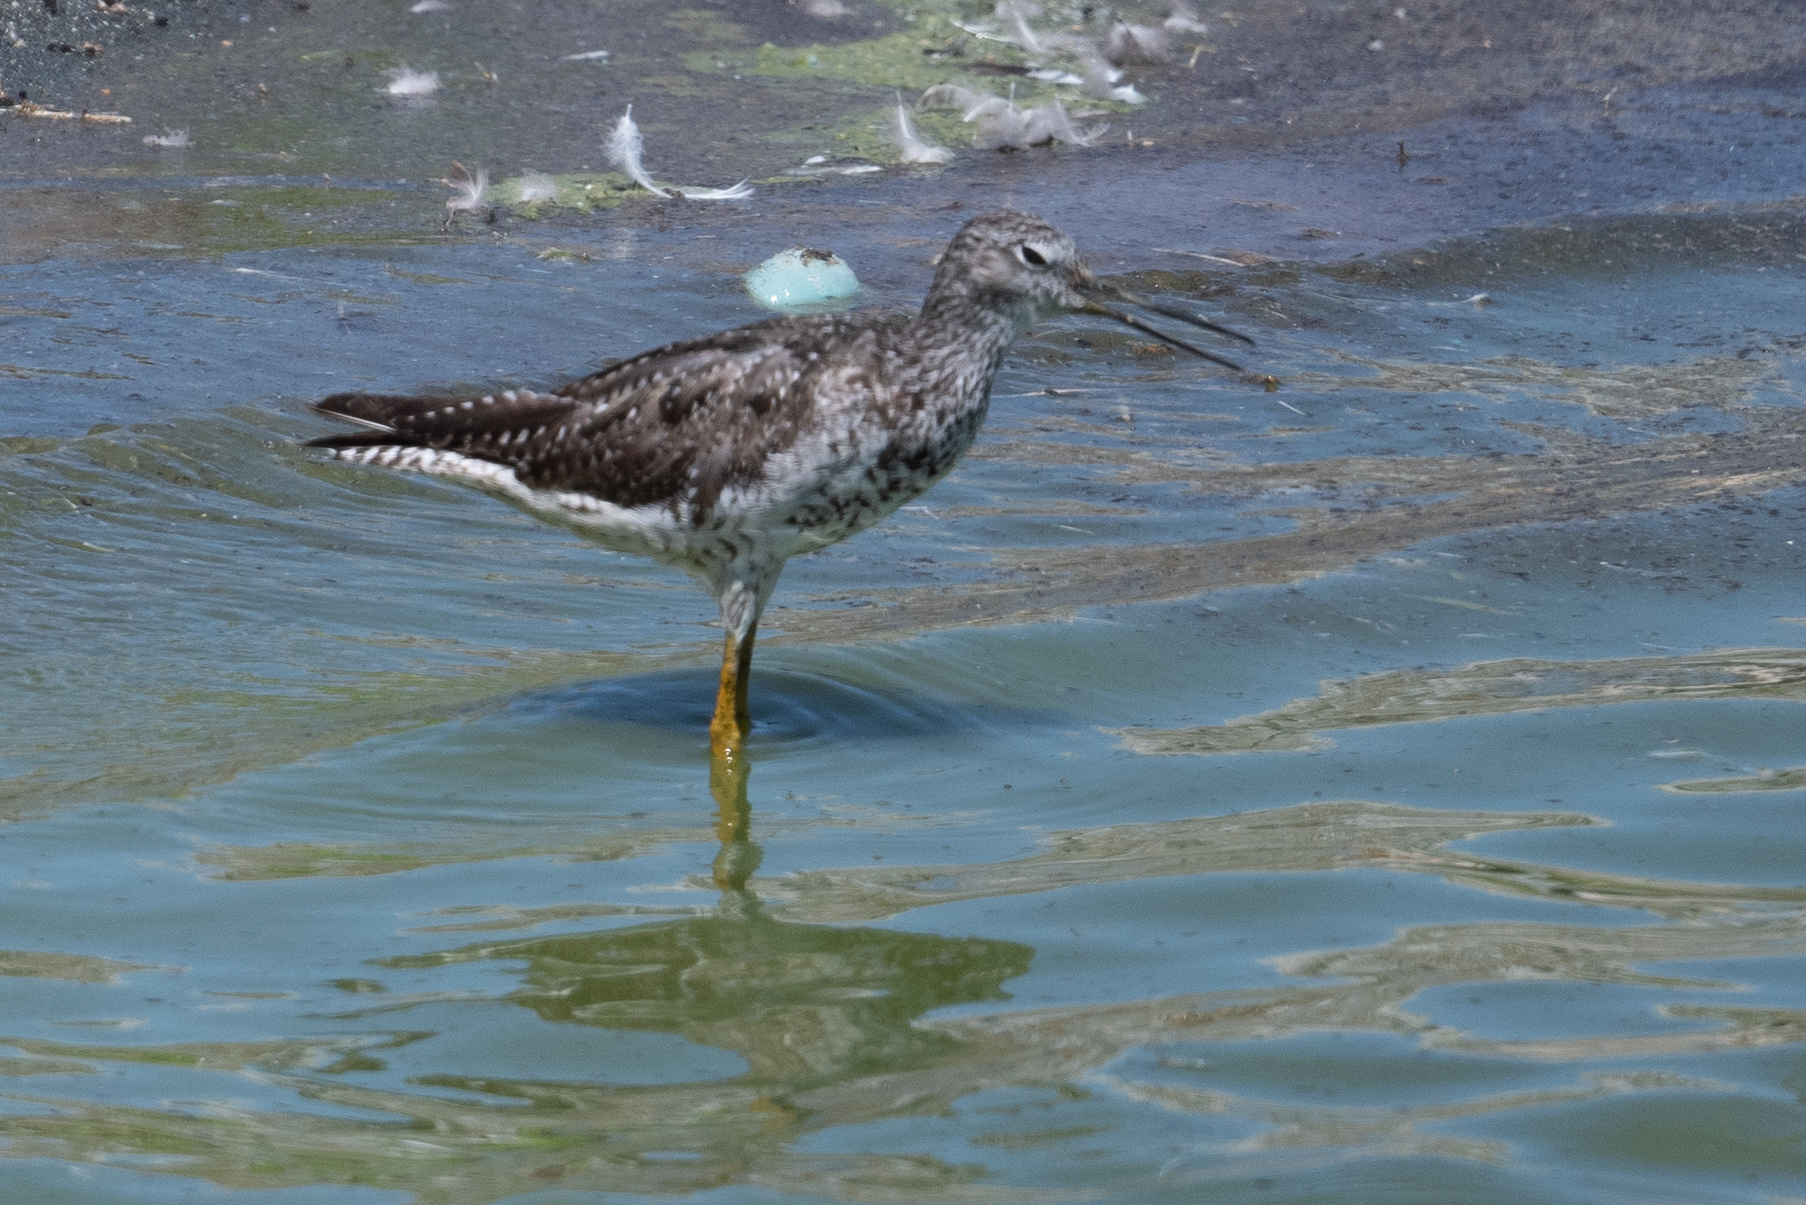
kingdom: Animalia
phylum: Chordata
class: Aves
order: Charadriiformes
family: Scolopacidae
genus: Tringa
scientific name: Tringa melanoleuca
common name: Greater yellowlegs
